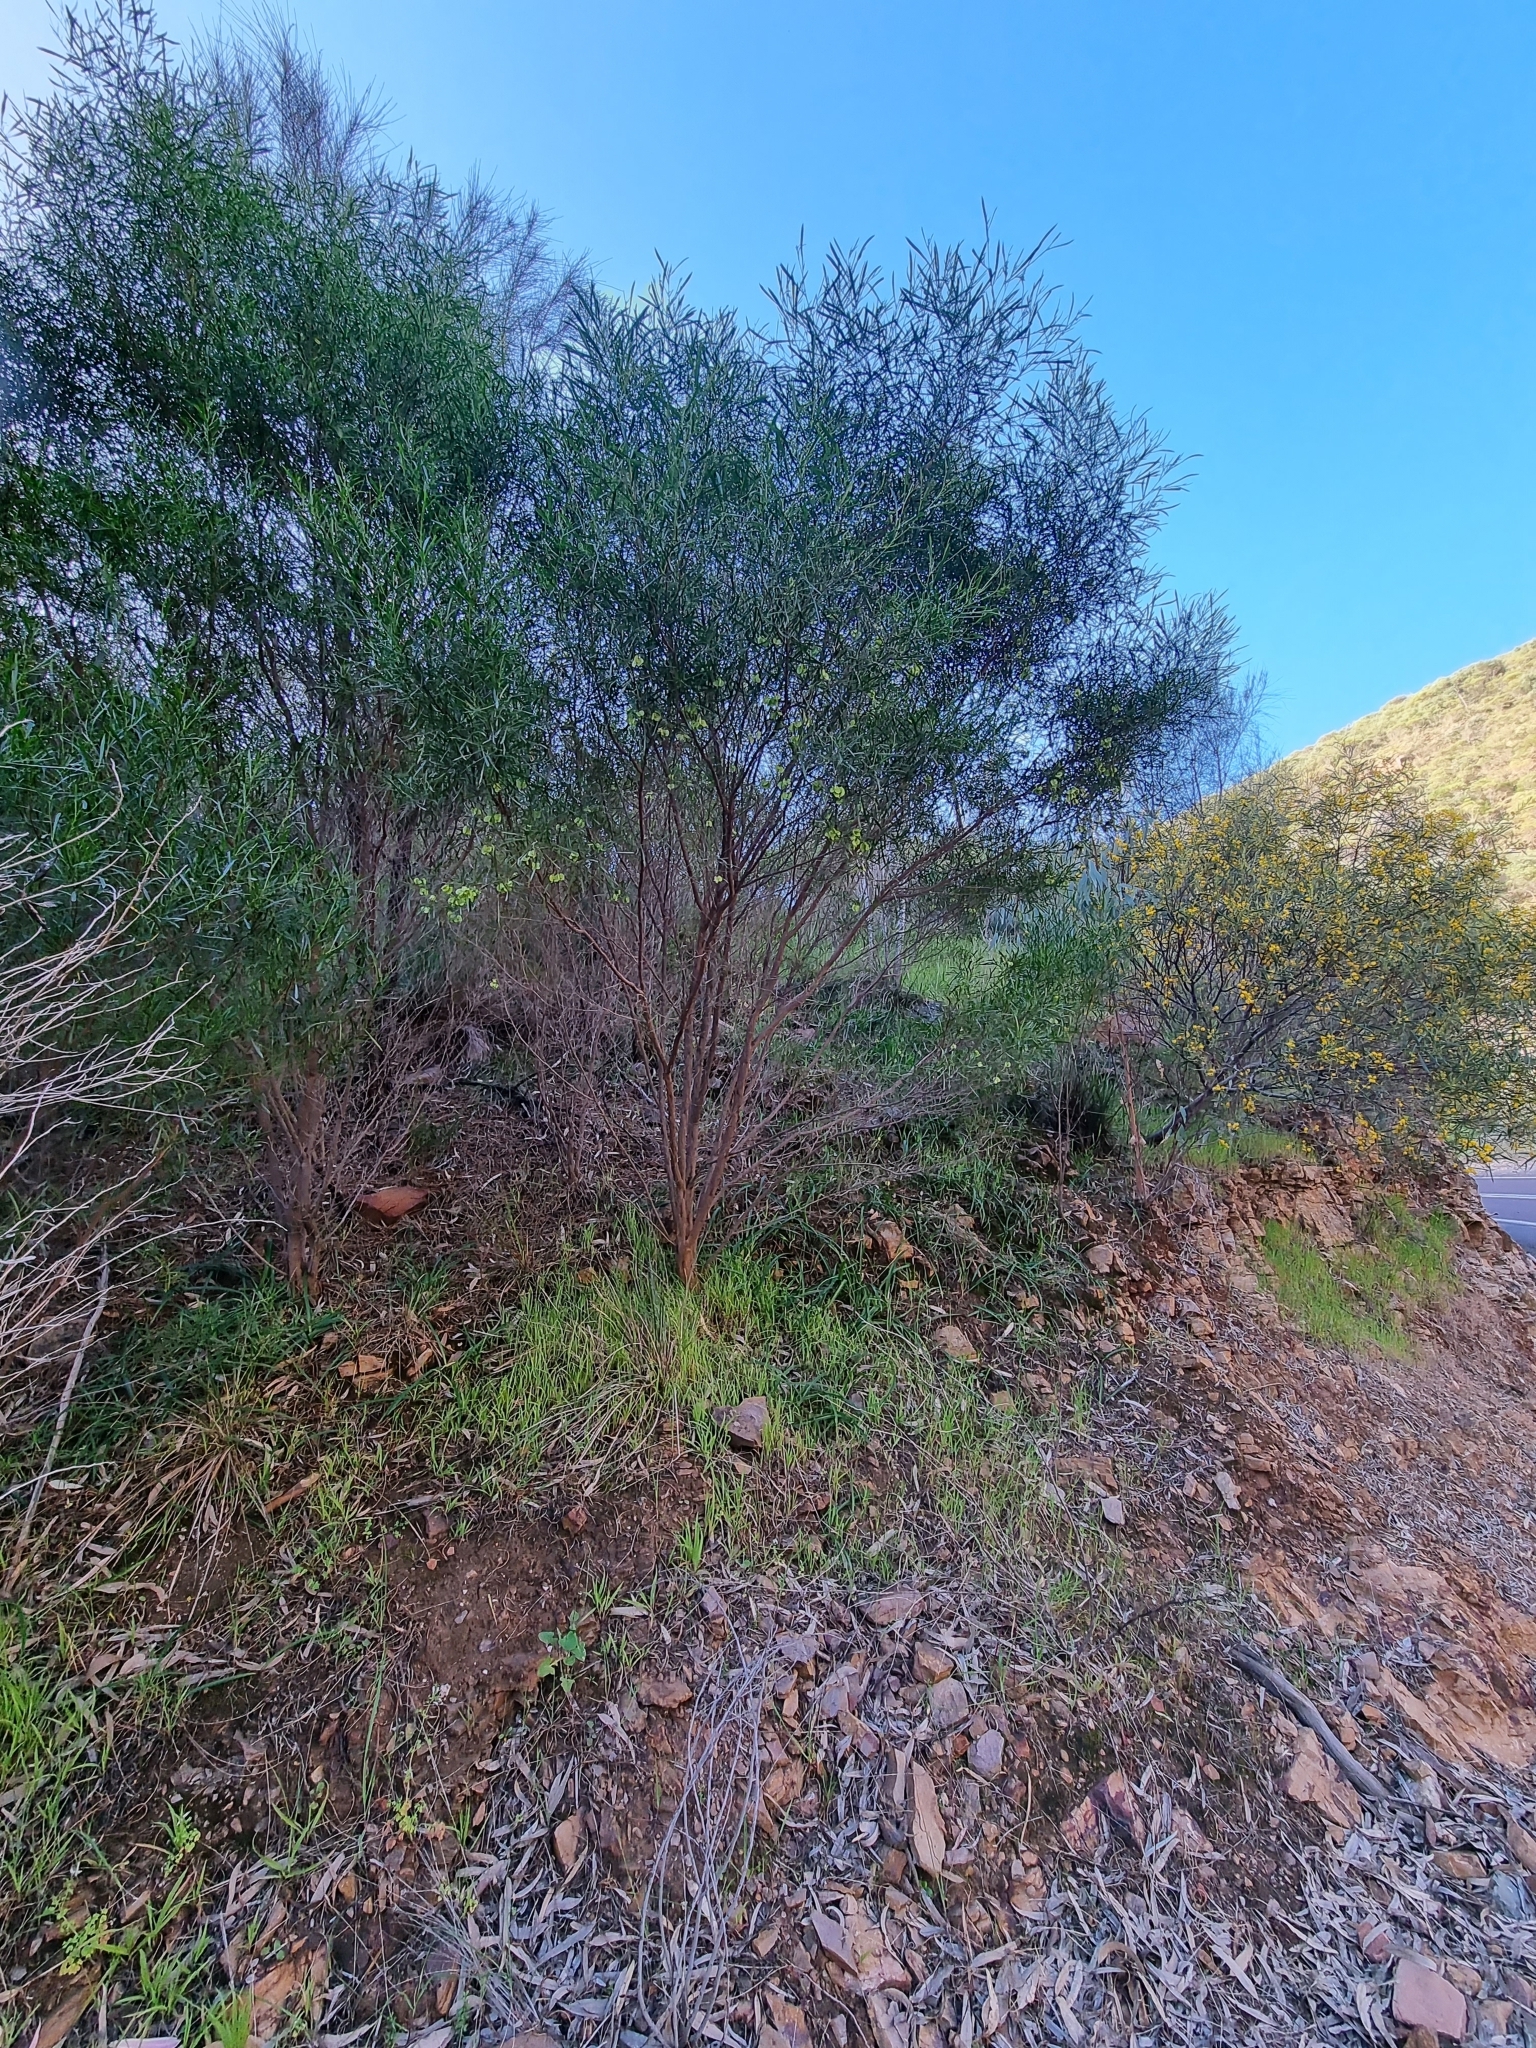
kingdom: Plantae
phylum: Tracheophyta
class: Magnoliopsida
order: Sapindales
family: Sapindaceae
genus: Dodonaea
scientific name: Dodonaea viscosa
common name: Hopbush
